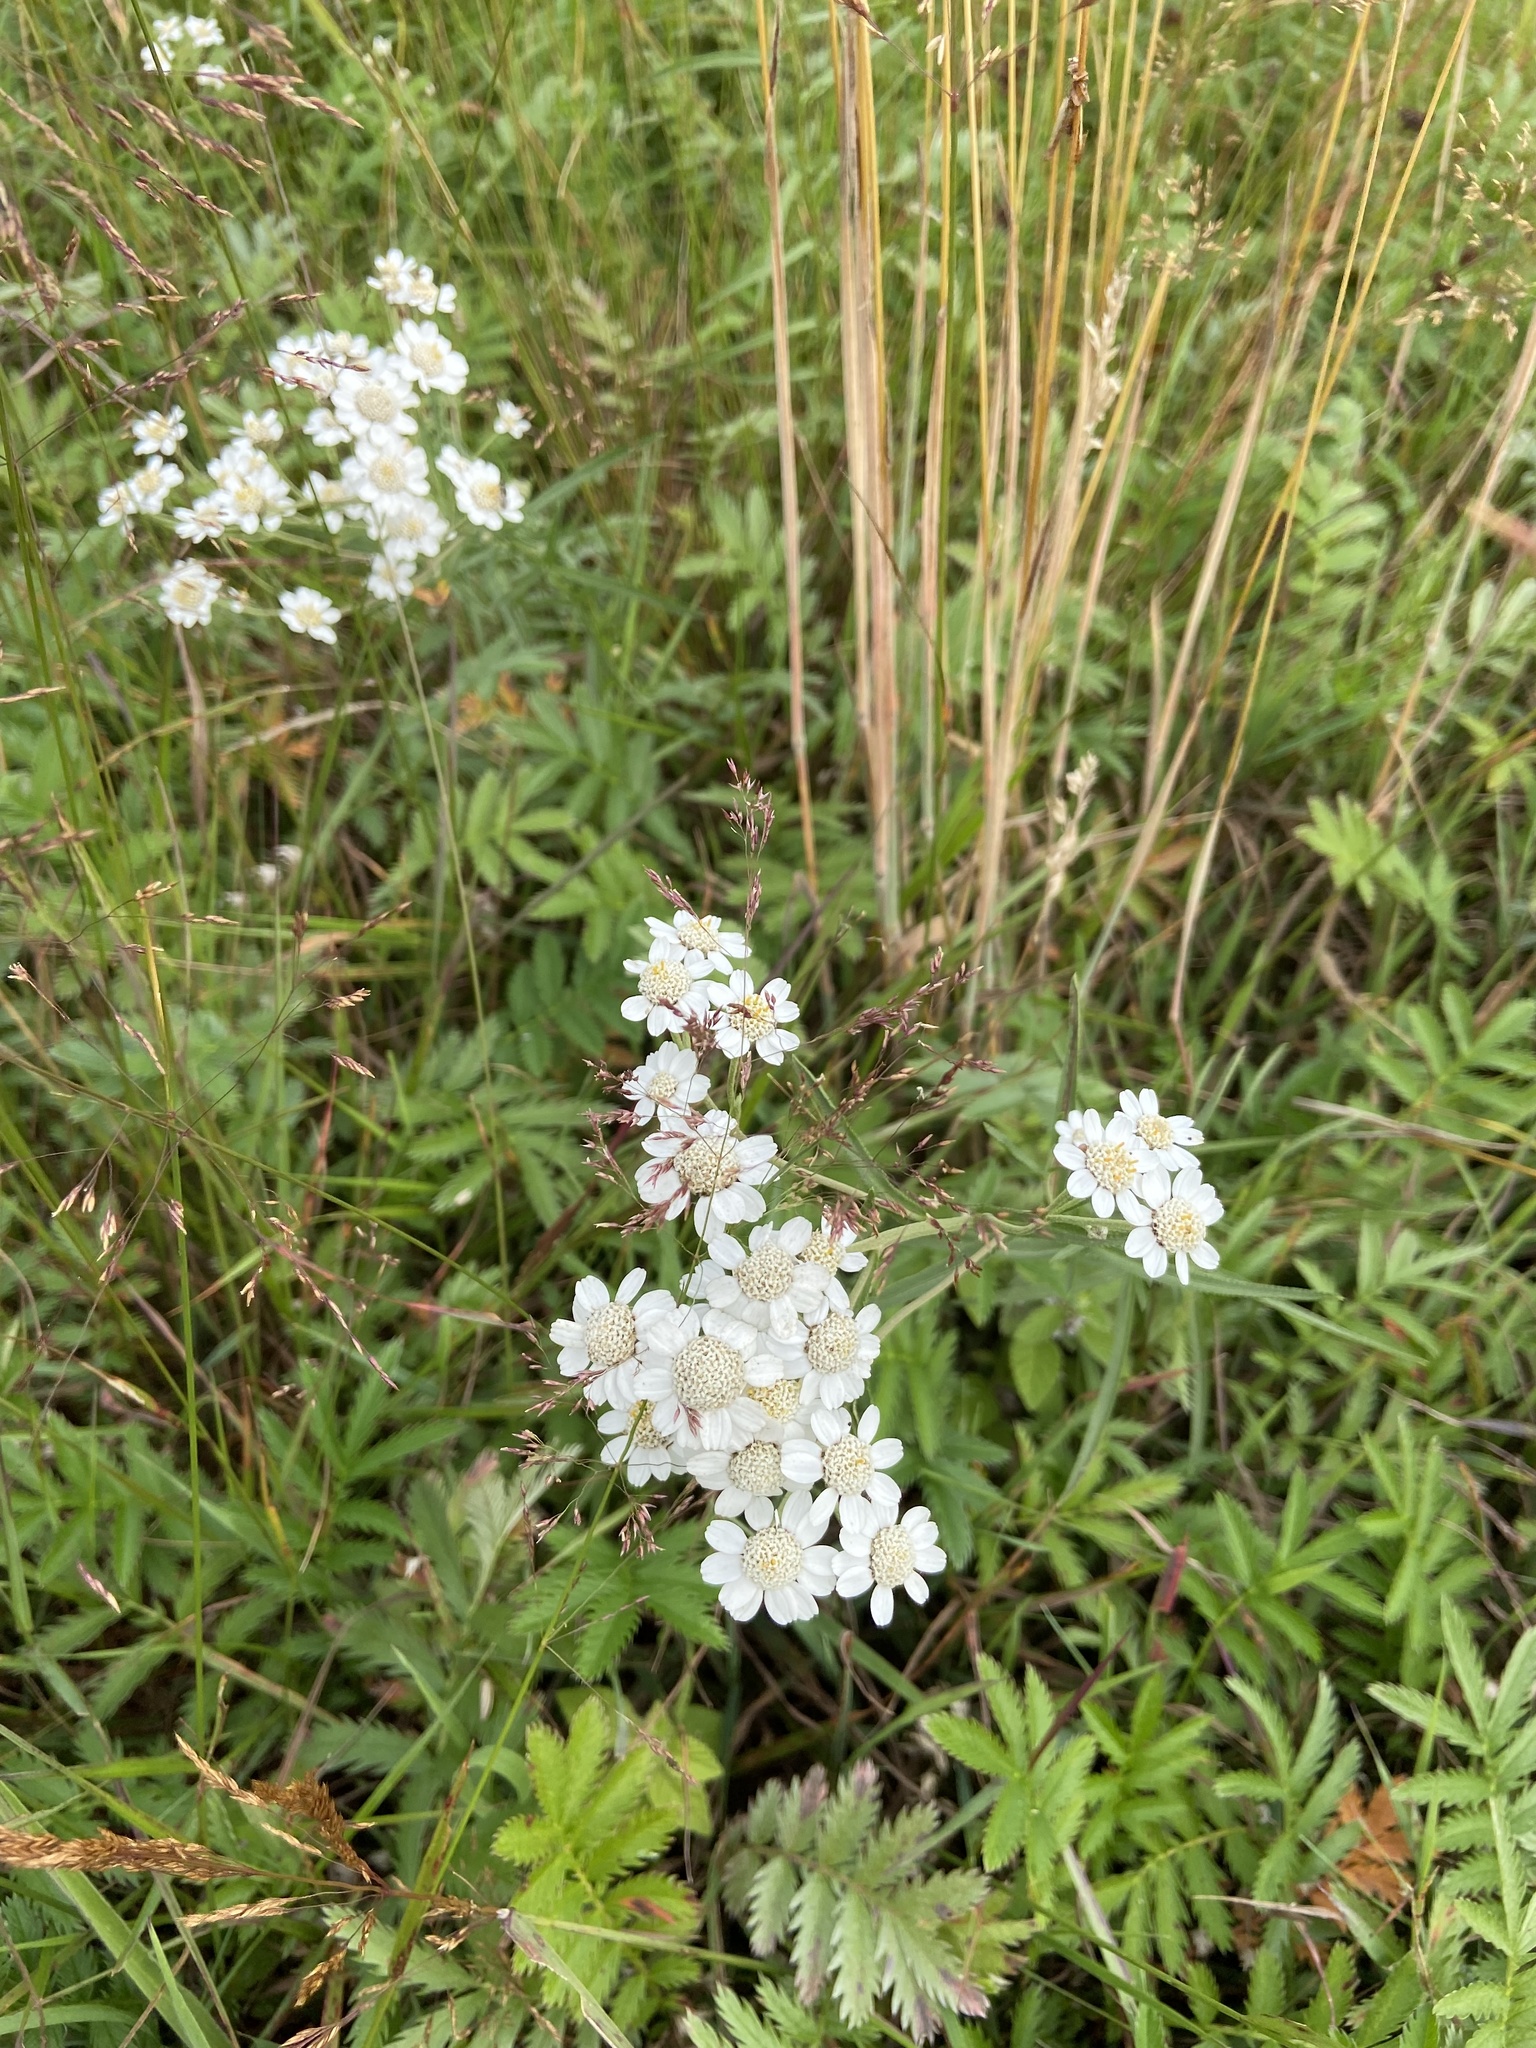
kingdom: Plantae
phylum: Tracheophyta
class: Magnoliopsida
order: Asterales
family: Asteraceae
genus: Achillea
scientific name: Achillea ptarmica
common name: Sneezeweed
